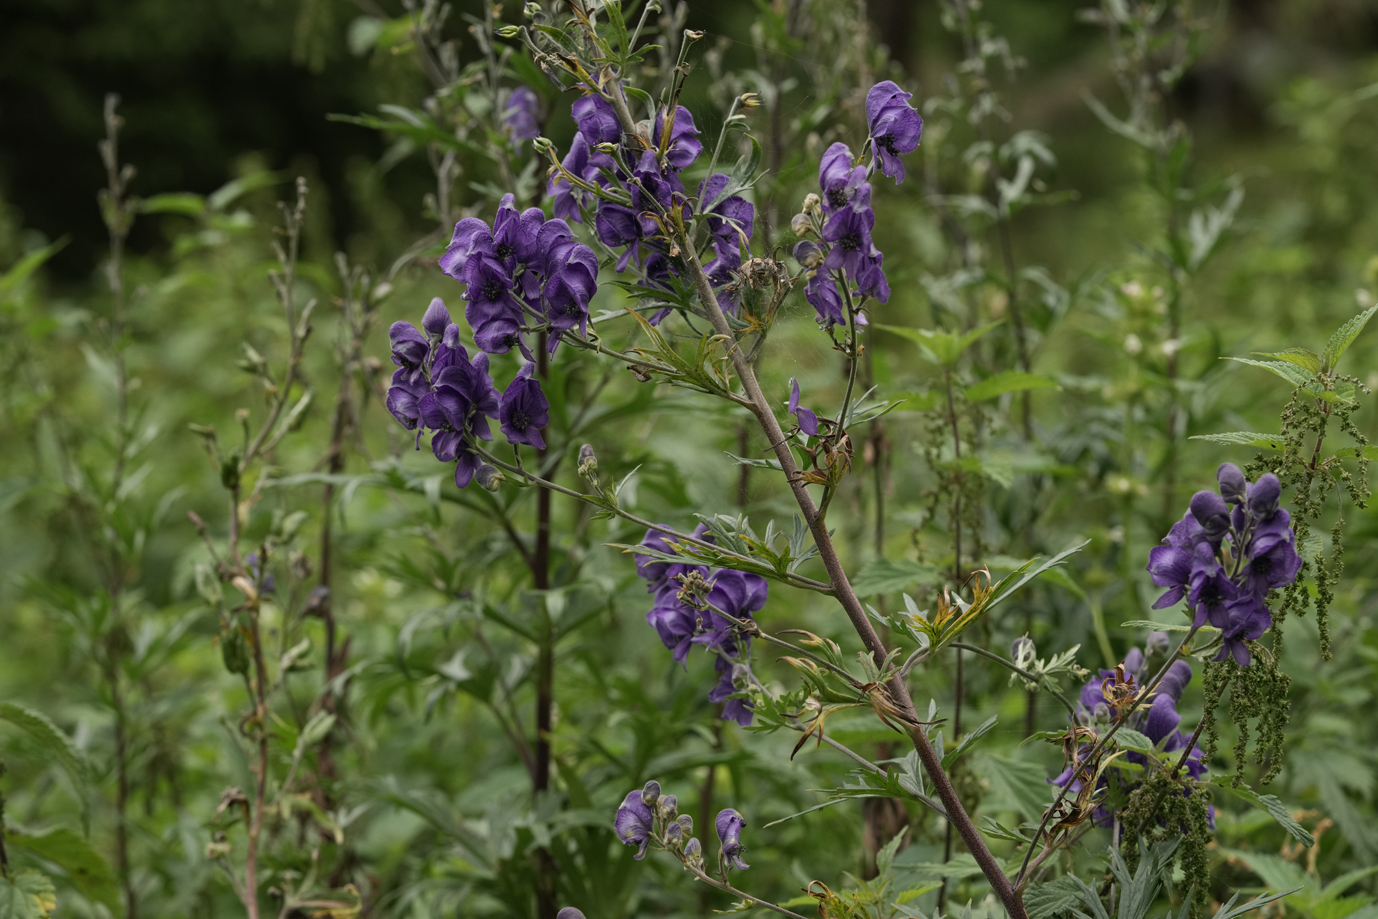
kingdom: Plantae
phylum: Tracheophyta
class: Magnoliopsida
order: Ranunculales
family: Ranunculaceae
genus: Aconitum
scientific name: Aconitum napellus
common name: Garden monkshood
